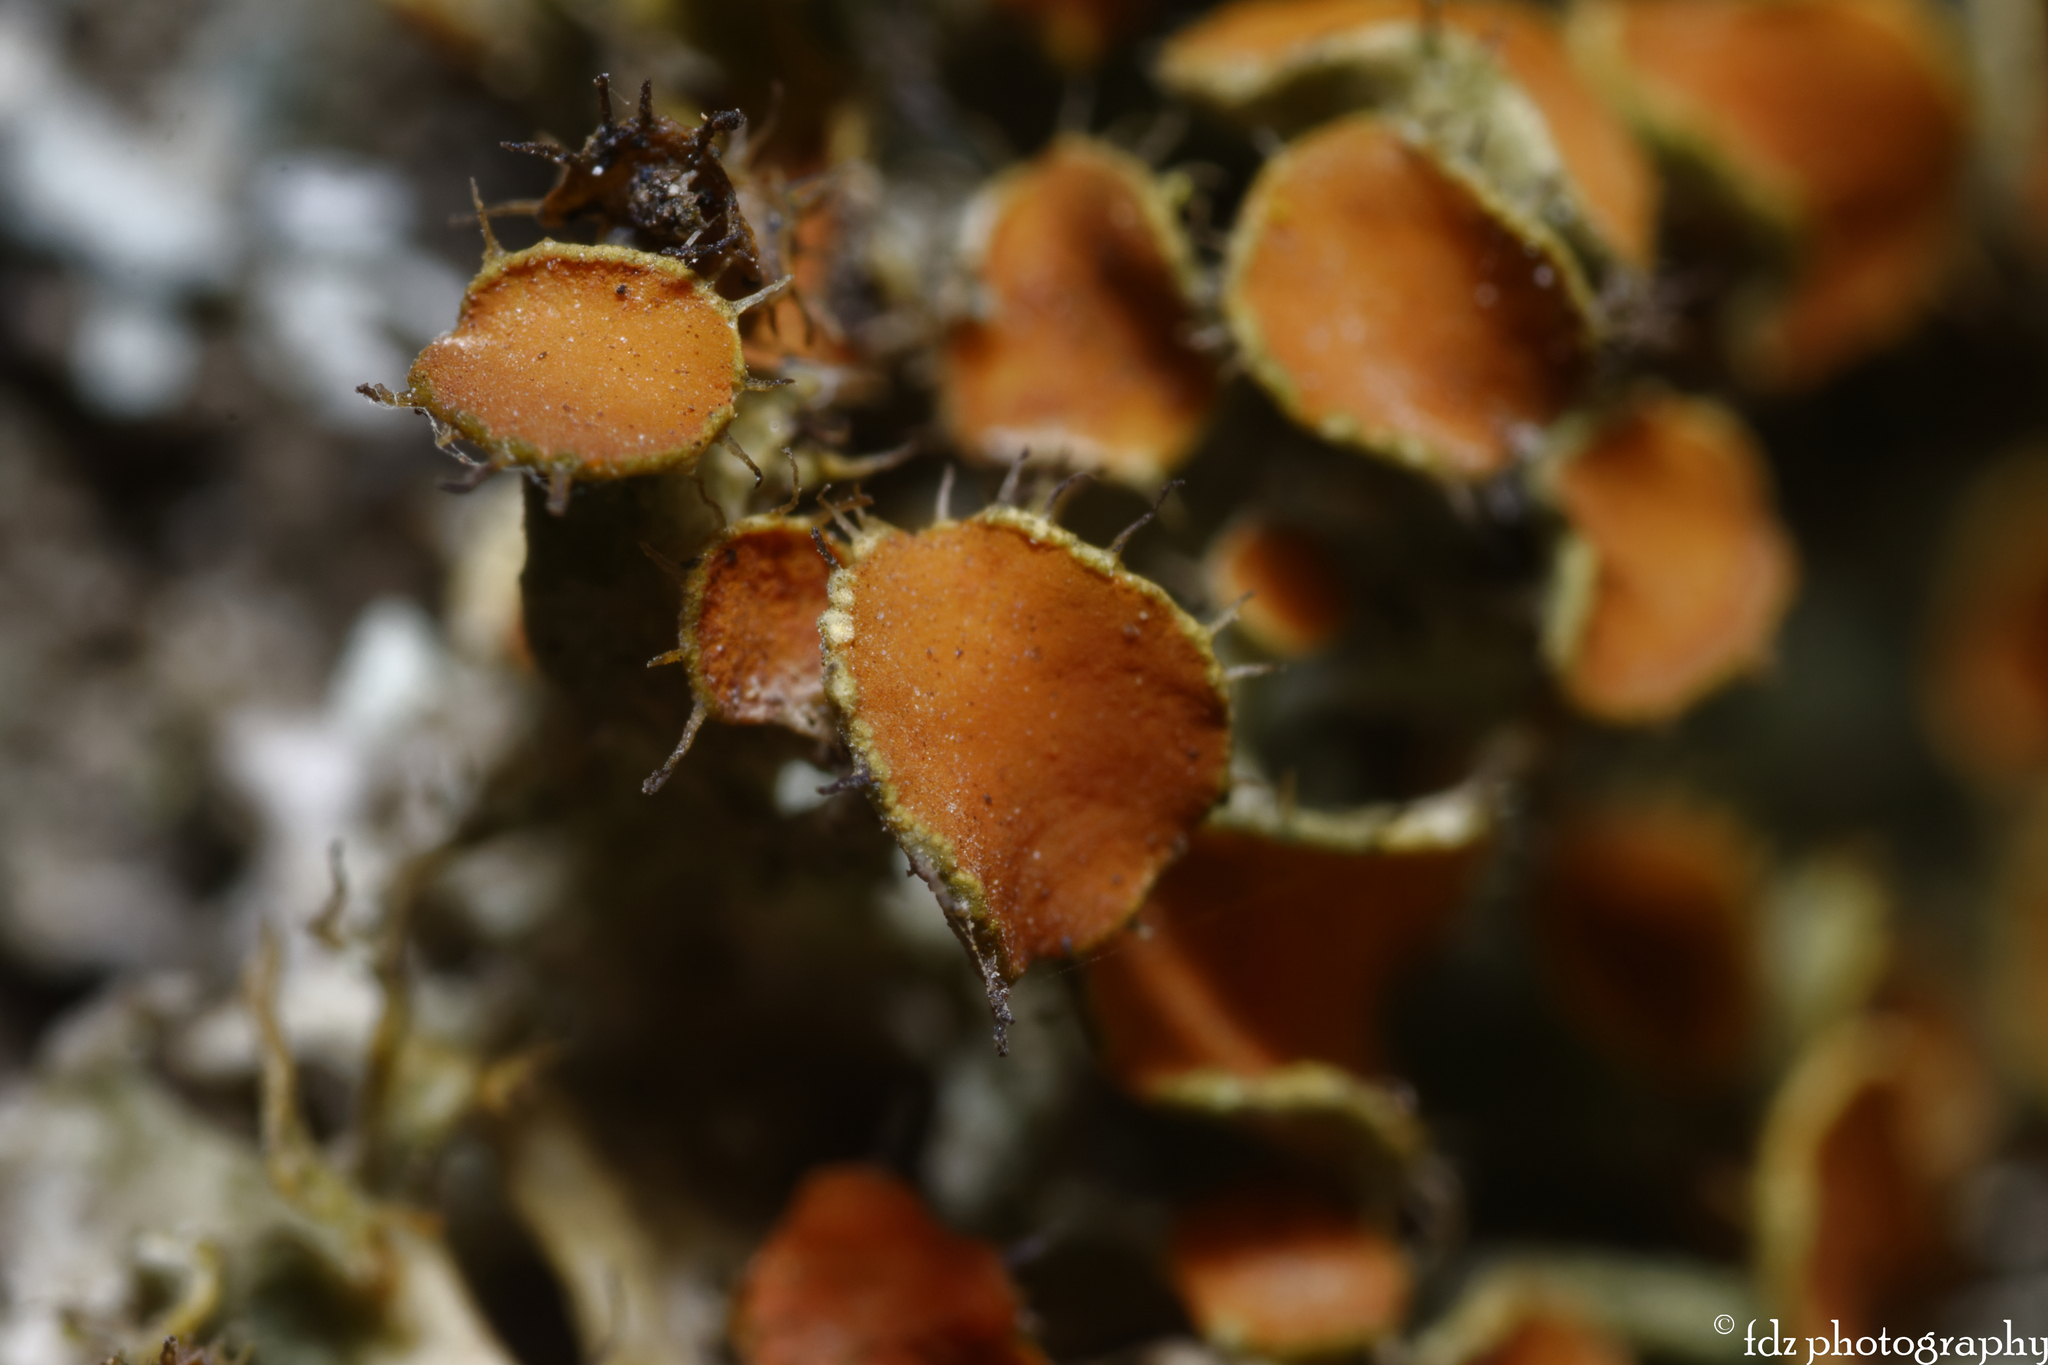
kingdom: Fungi
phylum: Ascomycota
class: Lecanoromycetes
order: Teloschistales
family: Teloschistaceae
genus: Niorma
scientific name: Niorma chrysophthalma
